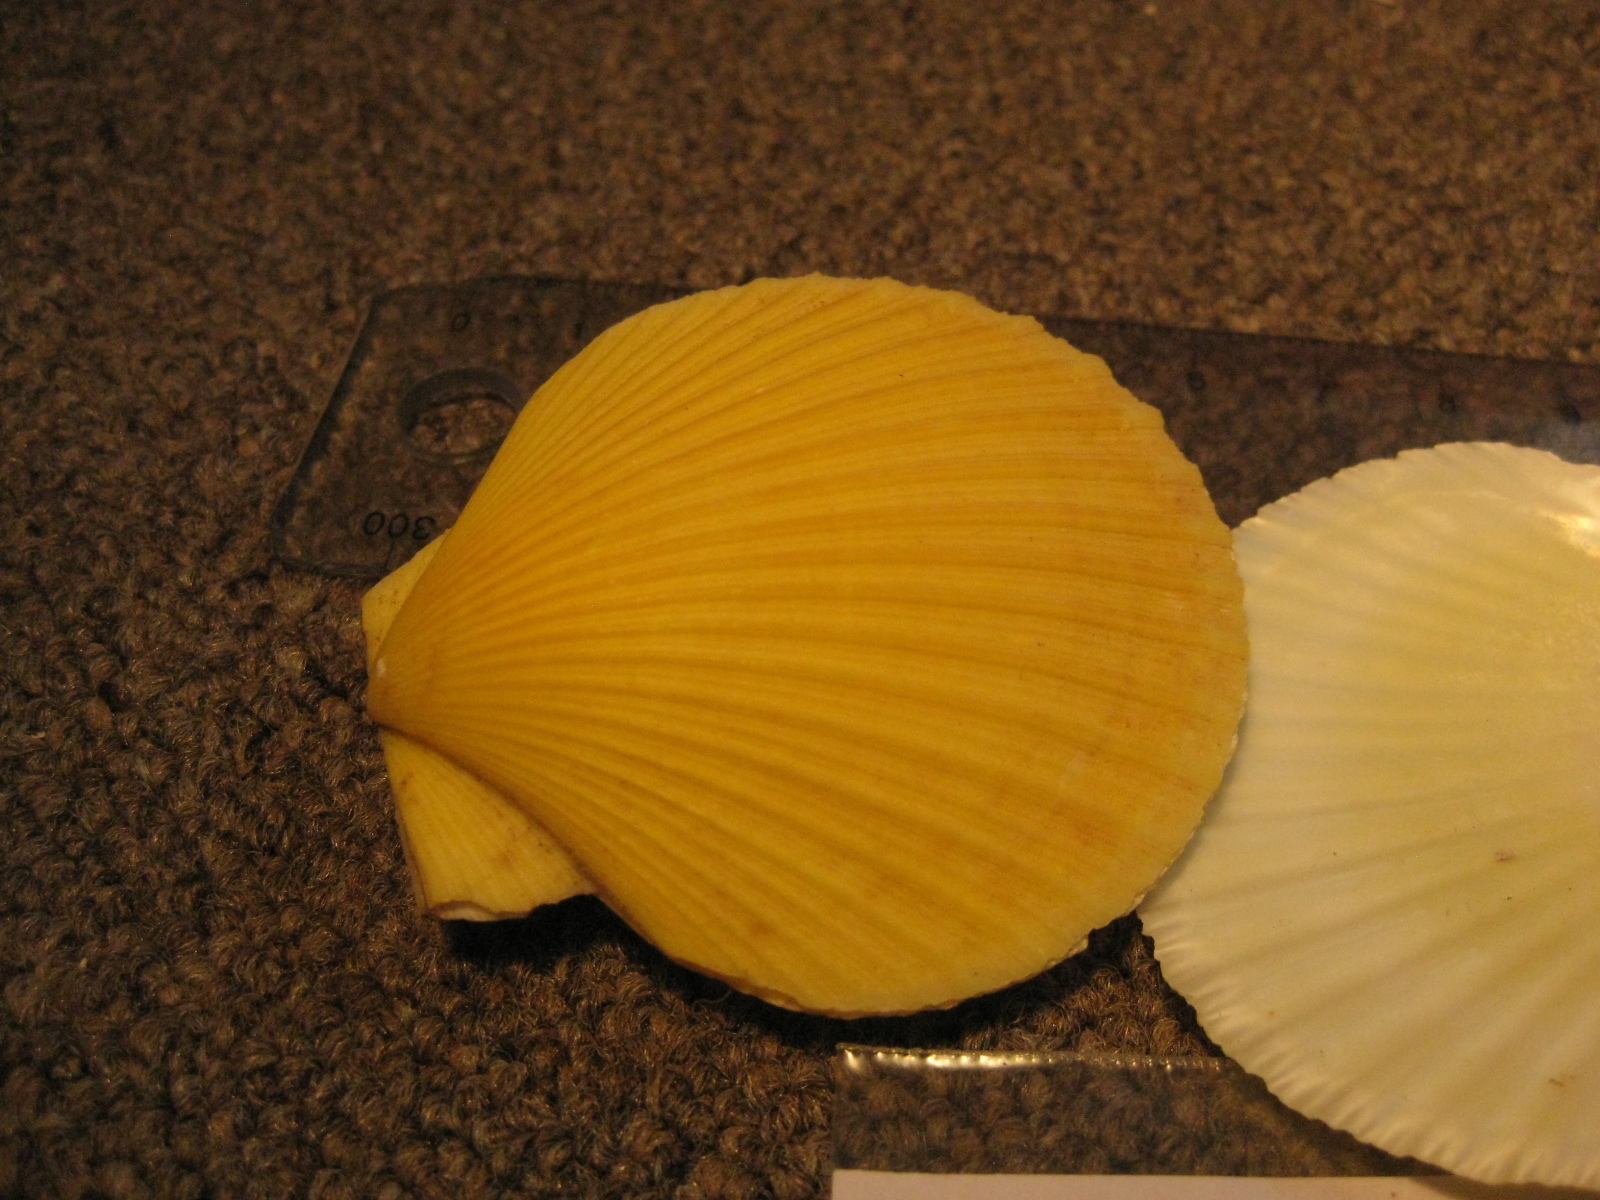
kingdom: Animalia
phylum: Mollusca
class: Bivalvia
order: Pectinida
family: Pectinidae
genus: Zygochlamys
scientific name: Zygochlamys delicatula
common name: Delicate scallop
